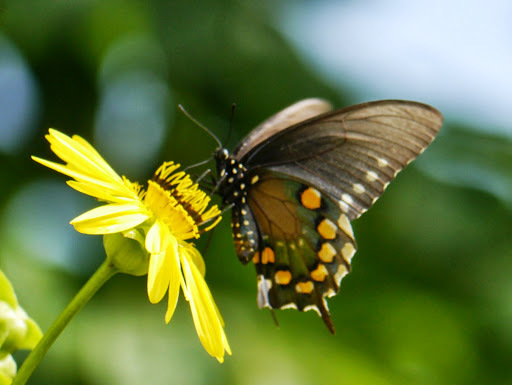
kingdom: Animalia
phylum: Arthropoda
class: Insecta
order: Lepidoptera
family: Papilionidae
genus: Battus
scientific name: Battus philenor
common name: Pipevine swallowtail
